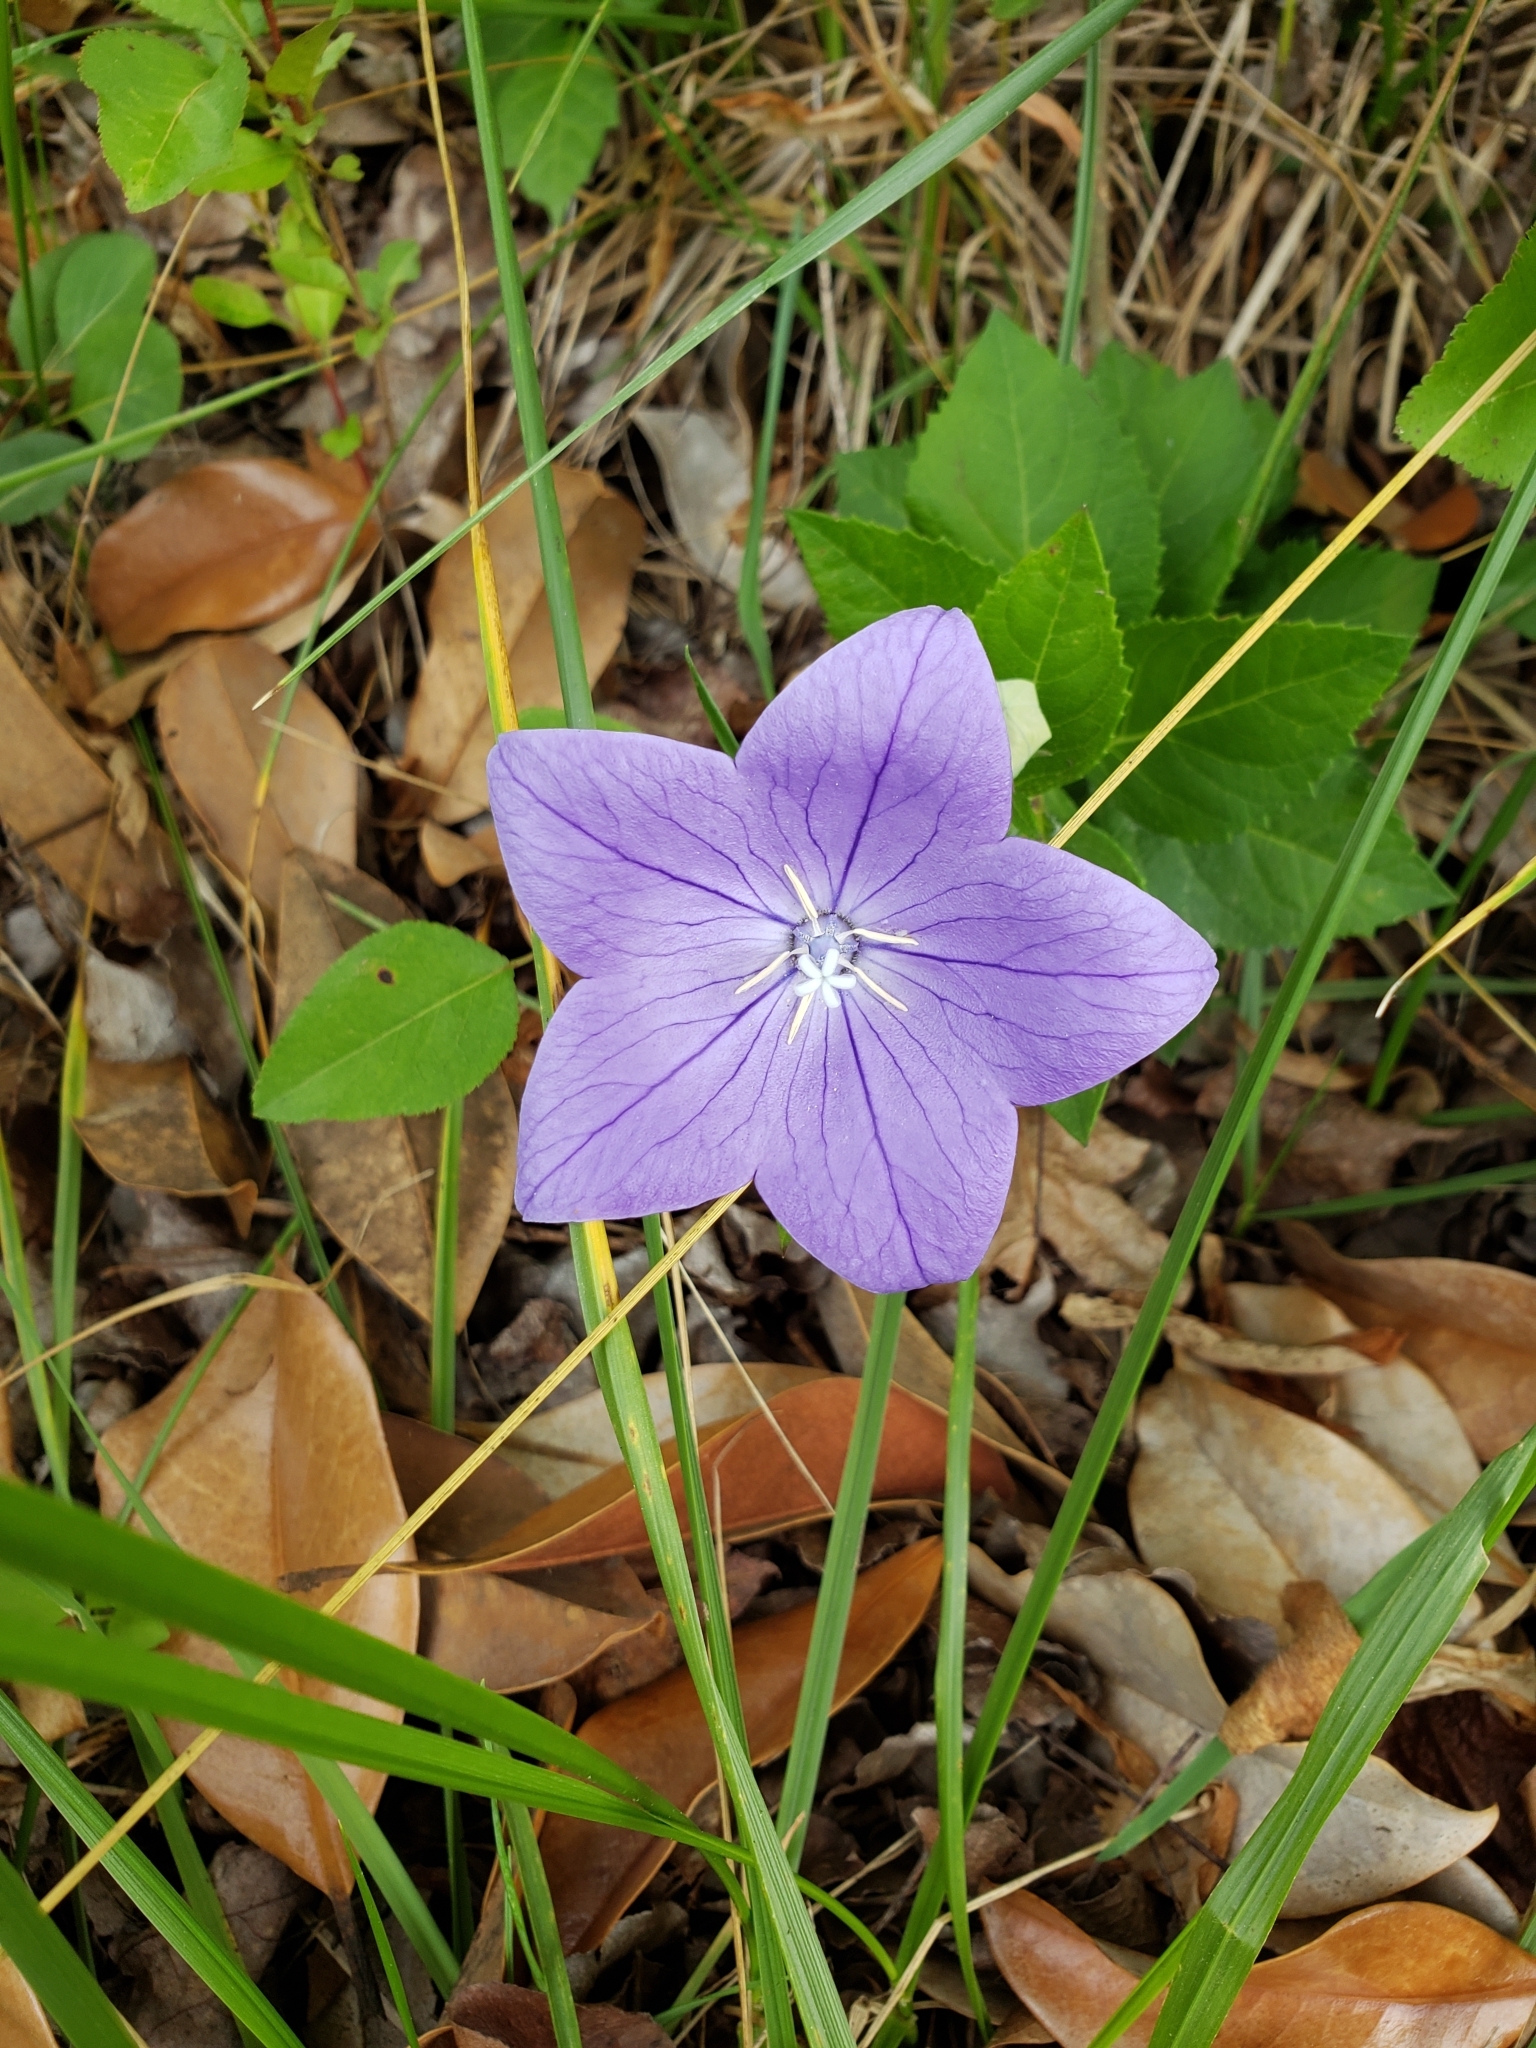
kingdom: Plantae
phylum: Tracheophyta
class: Magnoliopsida
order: Asterales
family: Campanulaceae
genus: Platycodon
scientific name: Platycodon grandiflorus
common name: Balloon-flower
